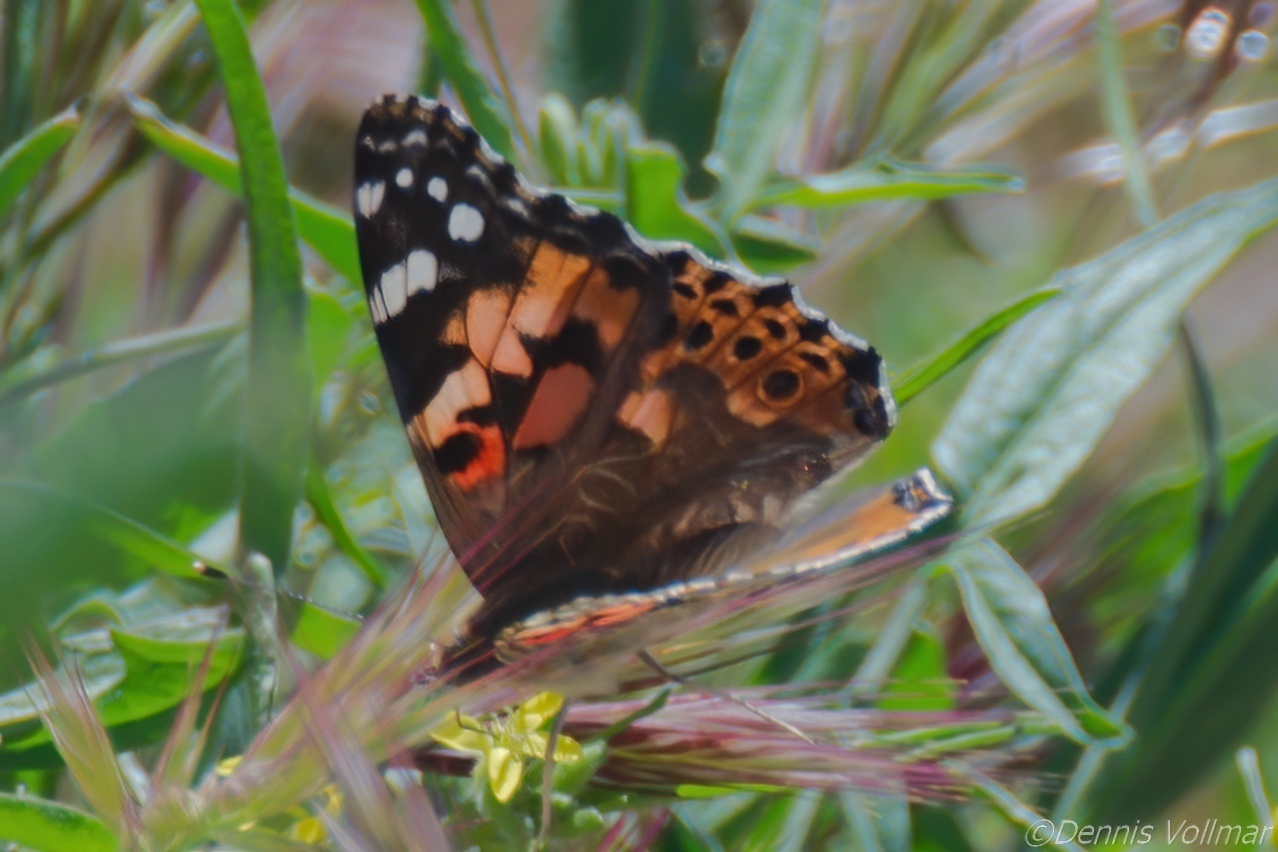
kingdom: Animalia
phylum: Arthropoda
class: Insecta
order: Lepidoptera
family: Nymphalidae
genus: Vanessa
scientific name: Vanessa cardui
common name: Painted lady
